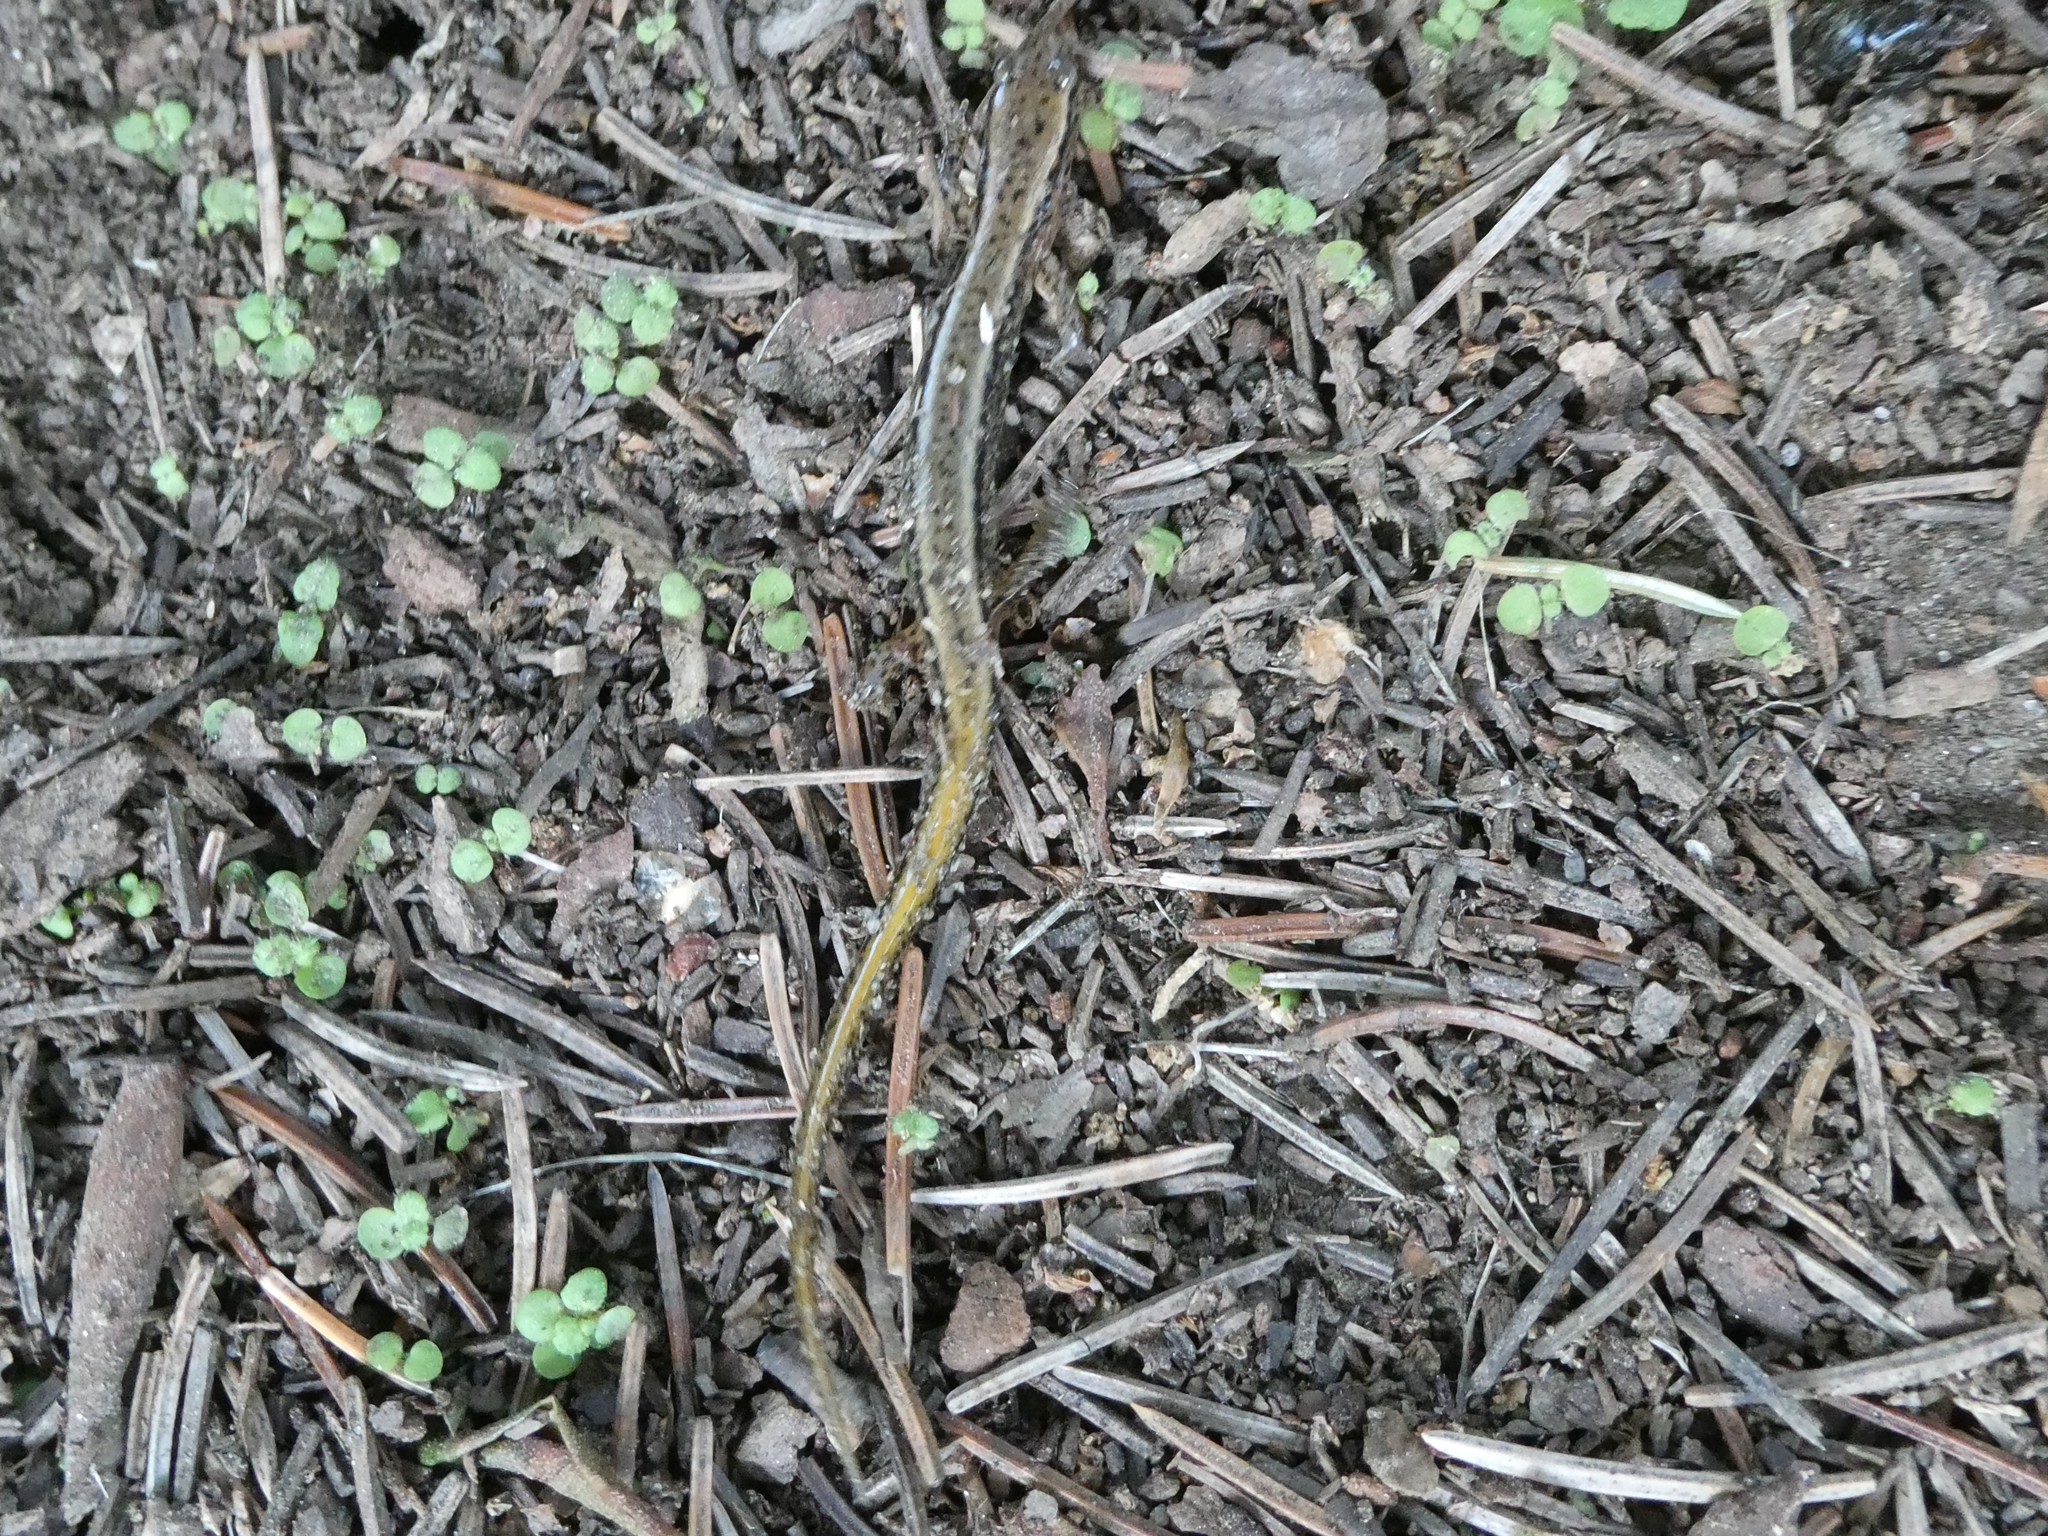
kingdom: Animalia
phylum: Chordata
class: Amphibia
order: Caudata
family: Plethodontidae
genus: Eurycea
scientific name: Eurycea bislineata
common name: Northern two-lined salamander
